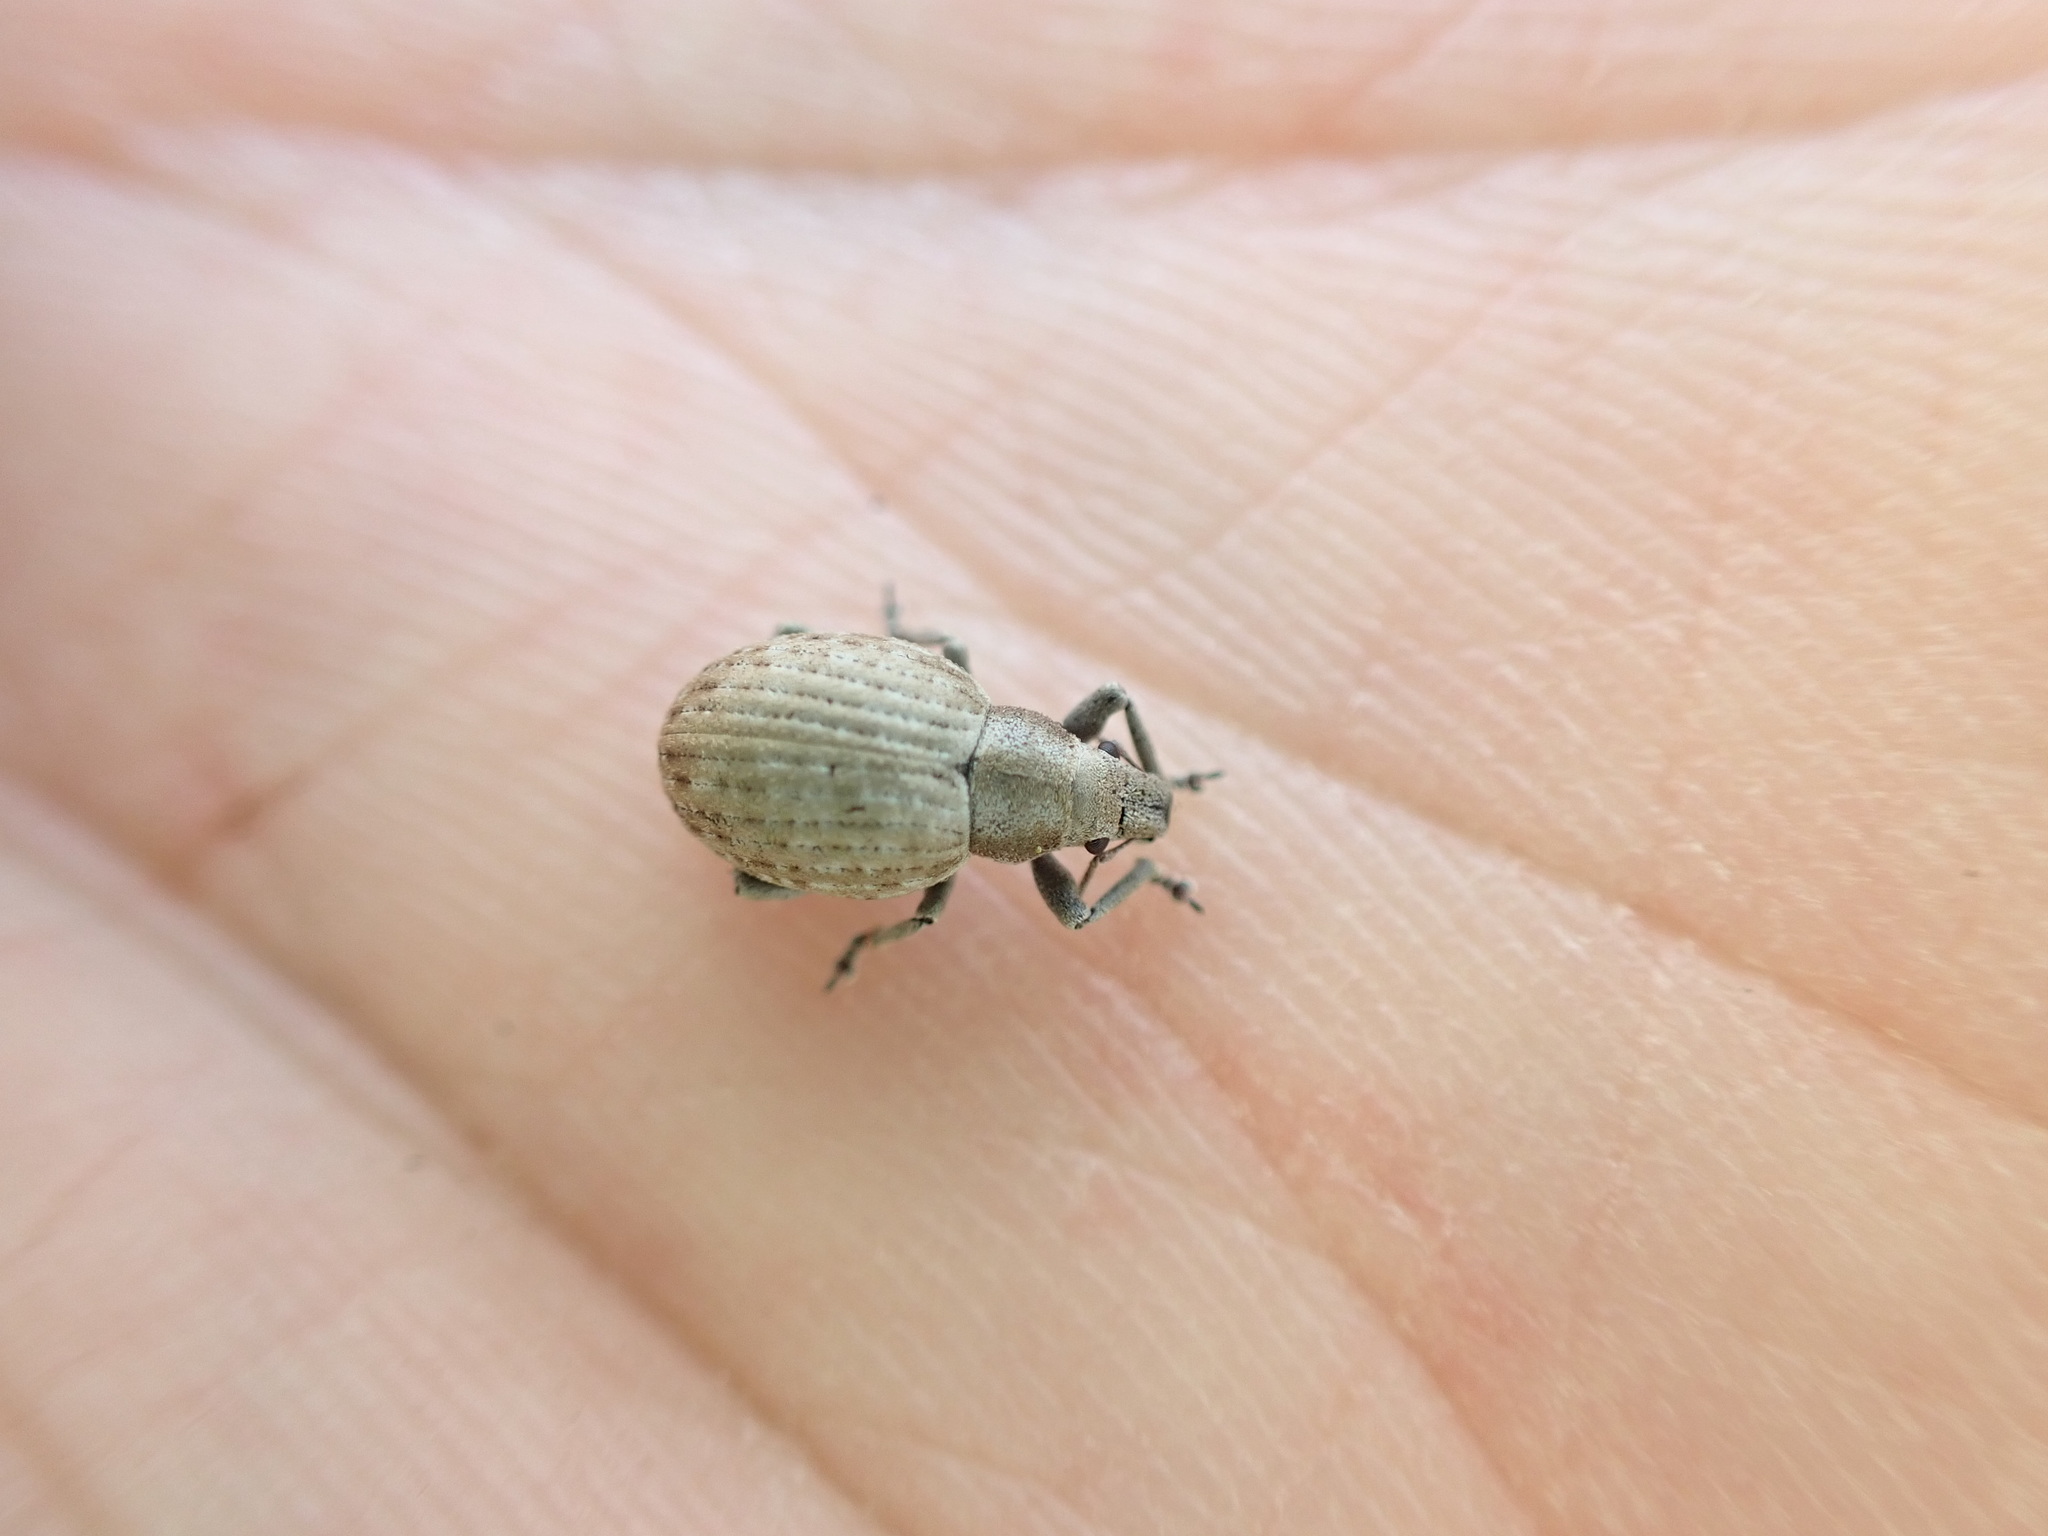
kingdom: Animalia
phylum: Arthropoda
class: Insecta
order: Coleoptera
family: Curculionidae
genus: Attactagenus
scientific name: Attactagenus plumbeus
